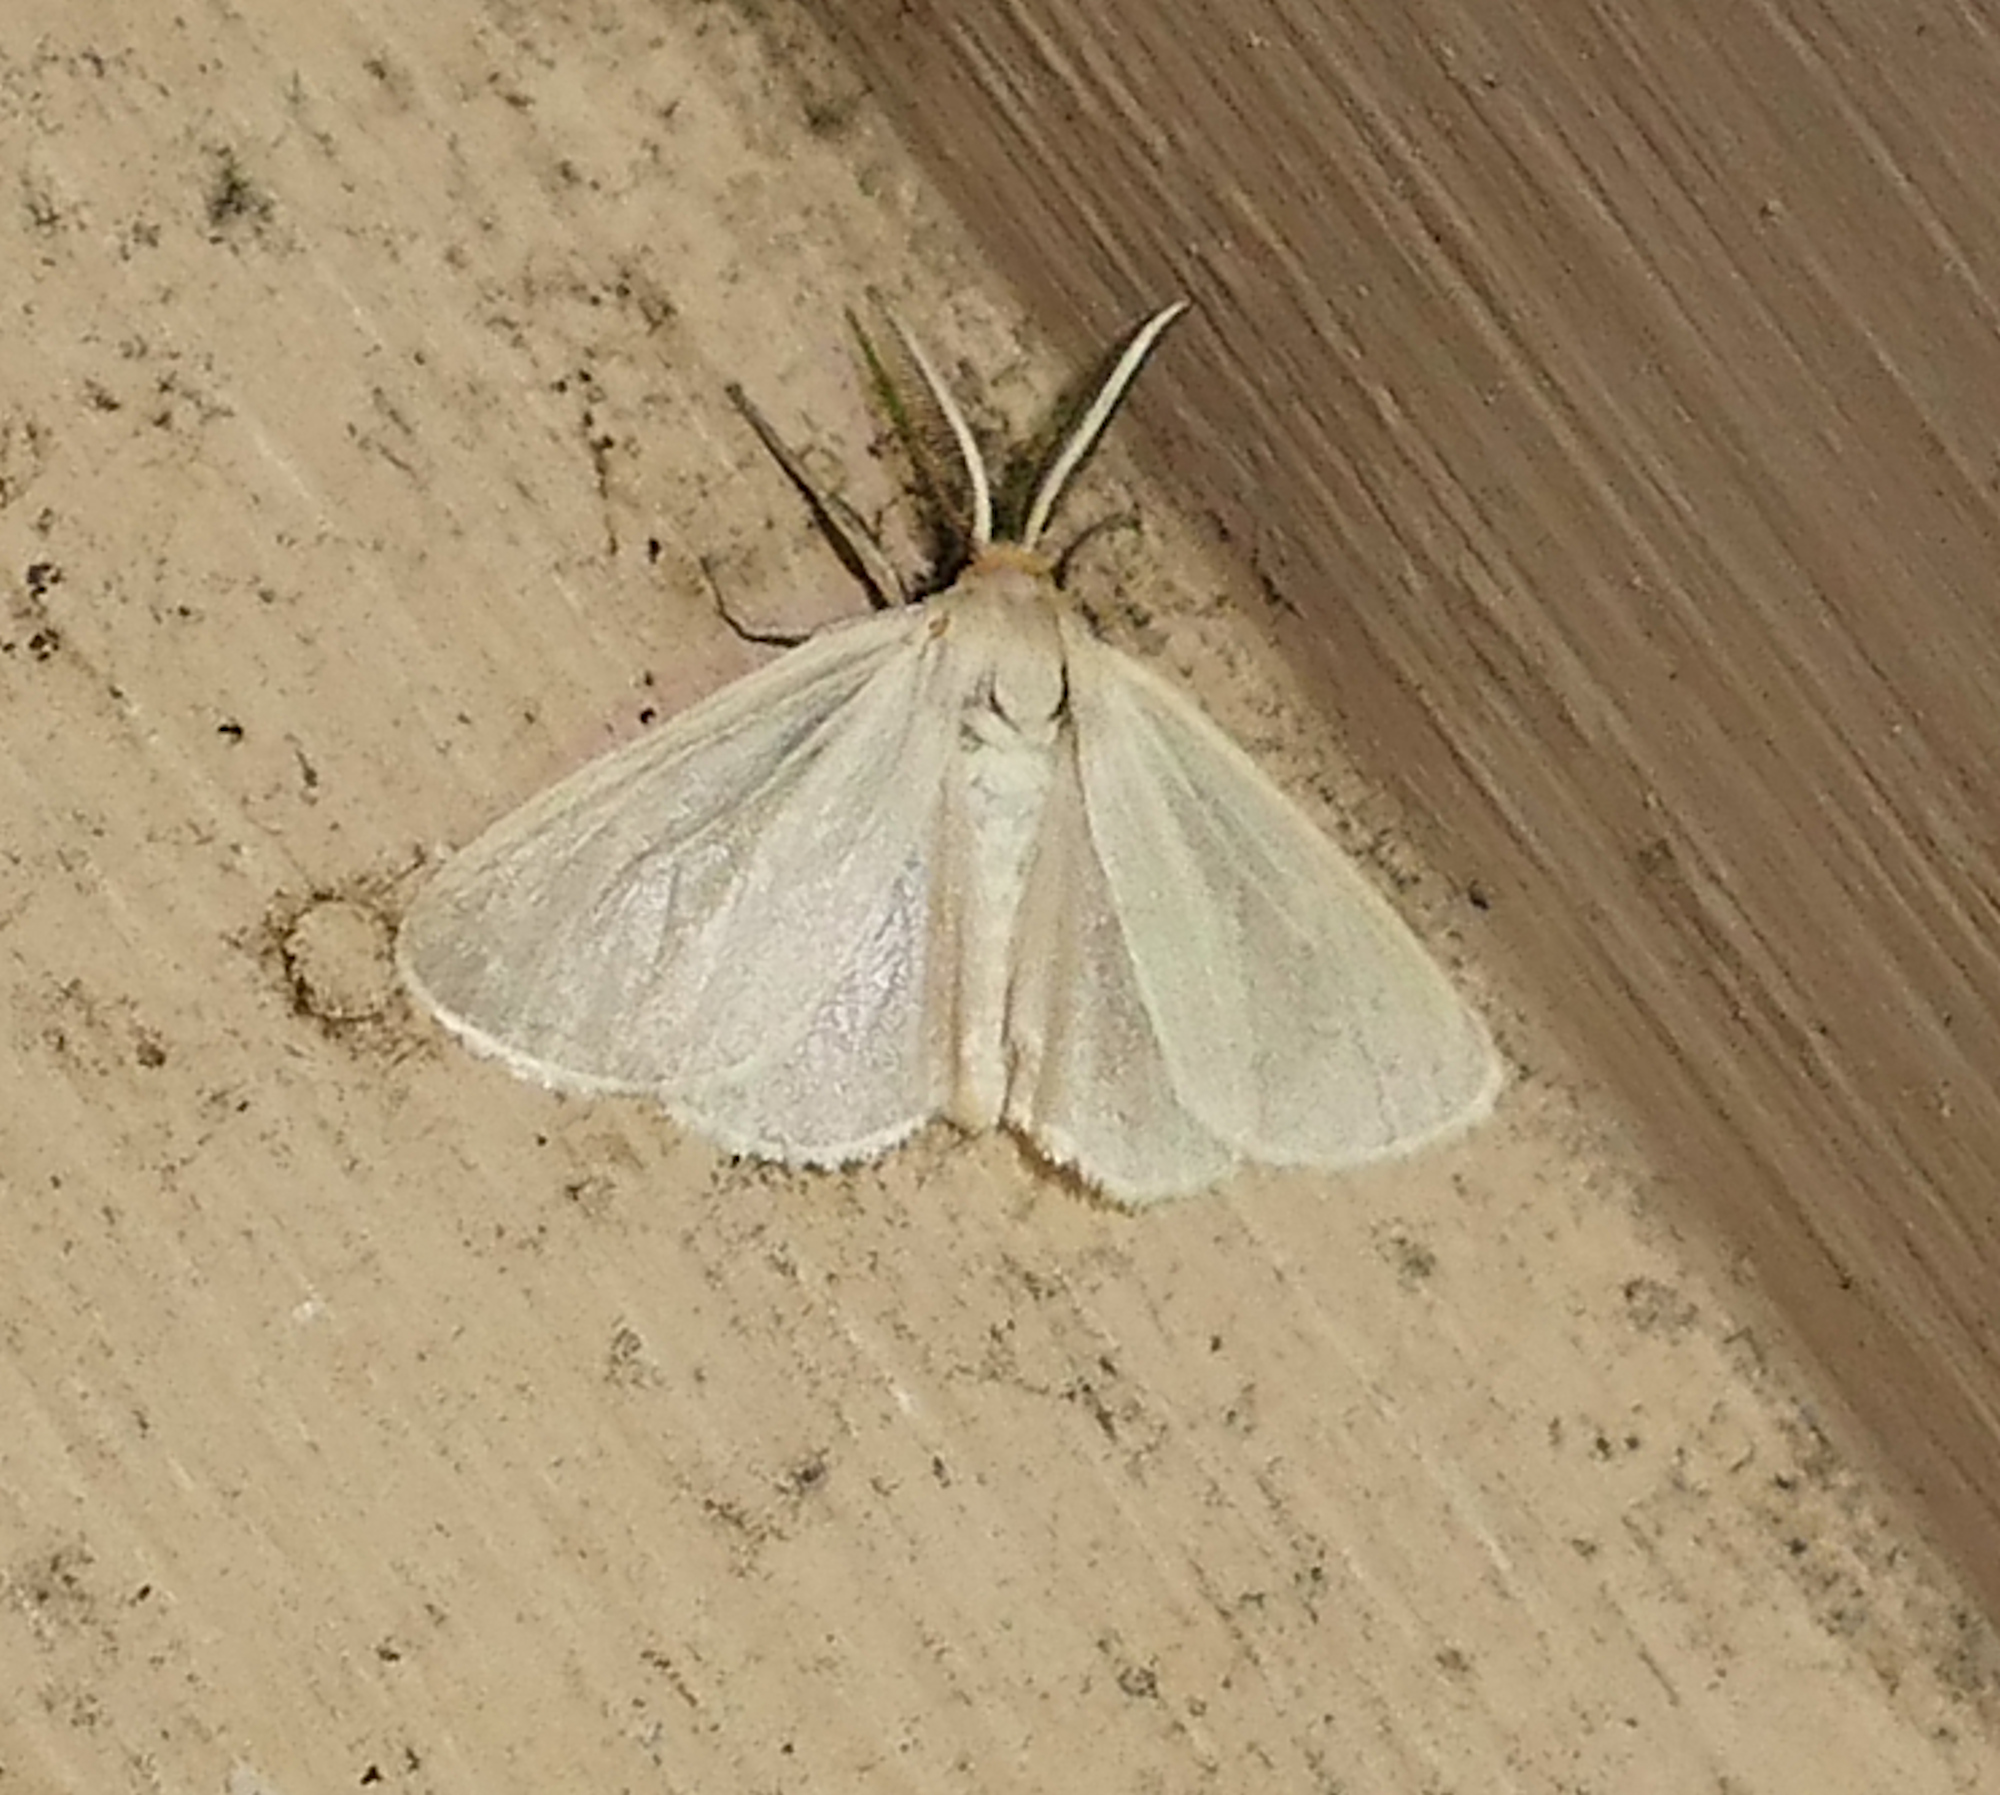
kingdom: Animalia
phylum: Arthropoda
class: Insecta
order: Lepidoptera
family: Erebidae
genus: Neoplynes
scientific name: Neoplynes eudora
